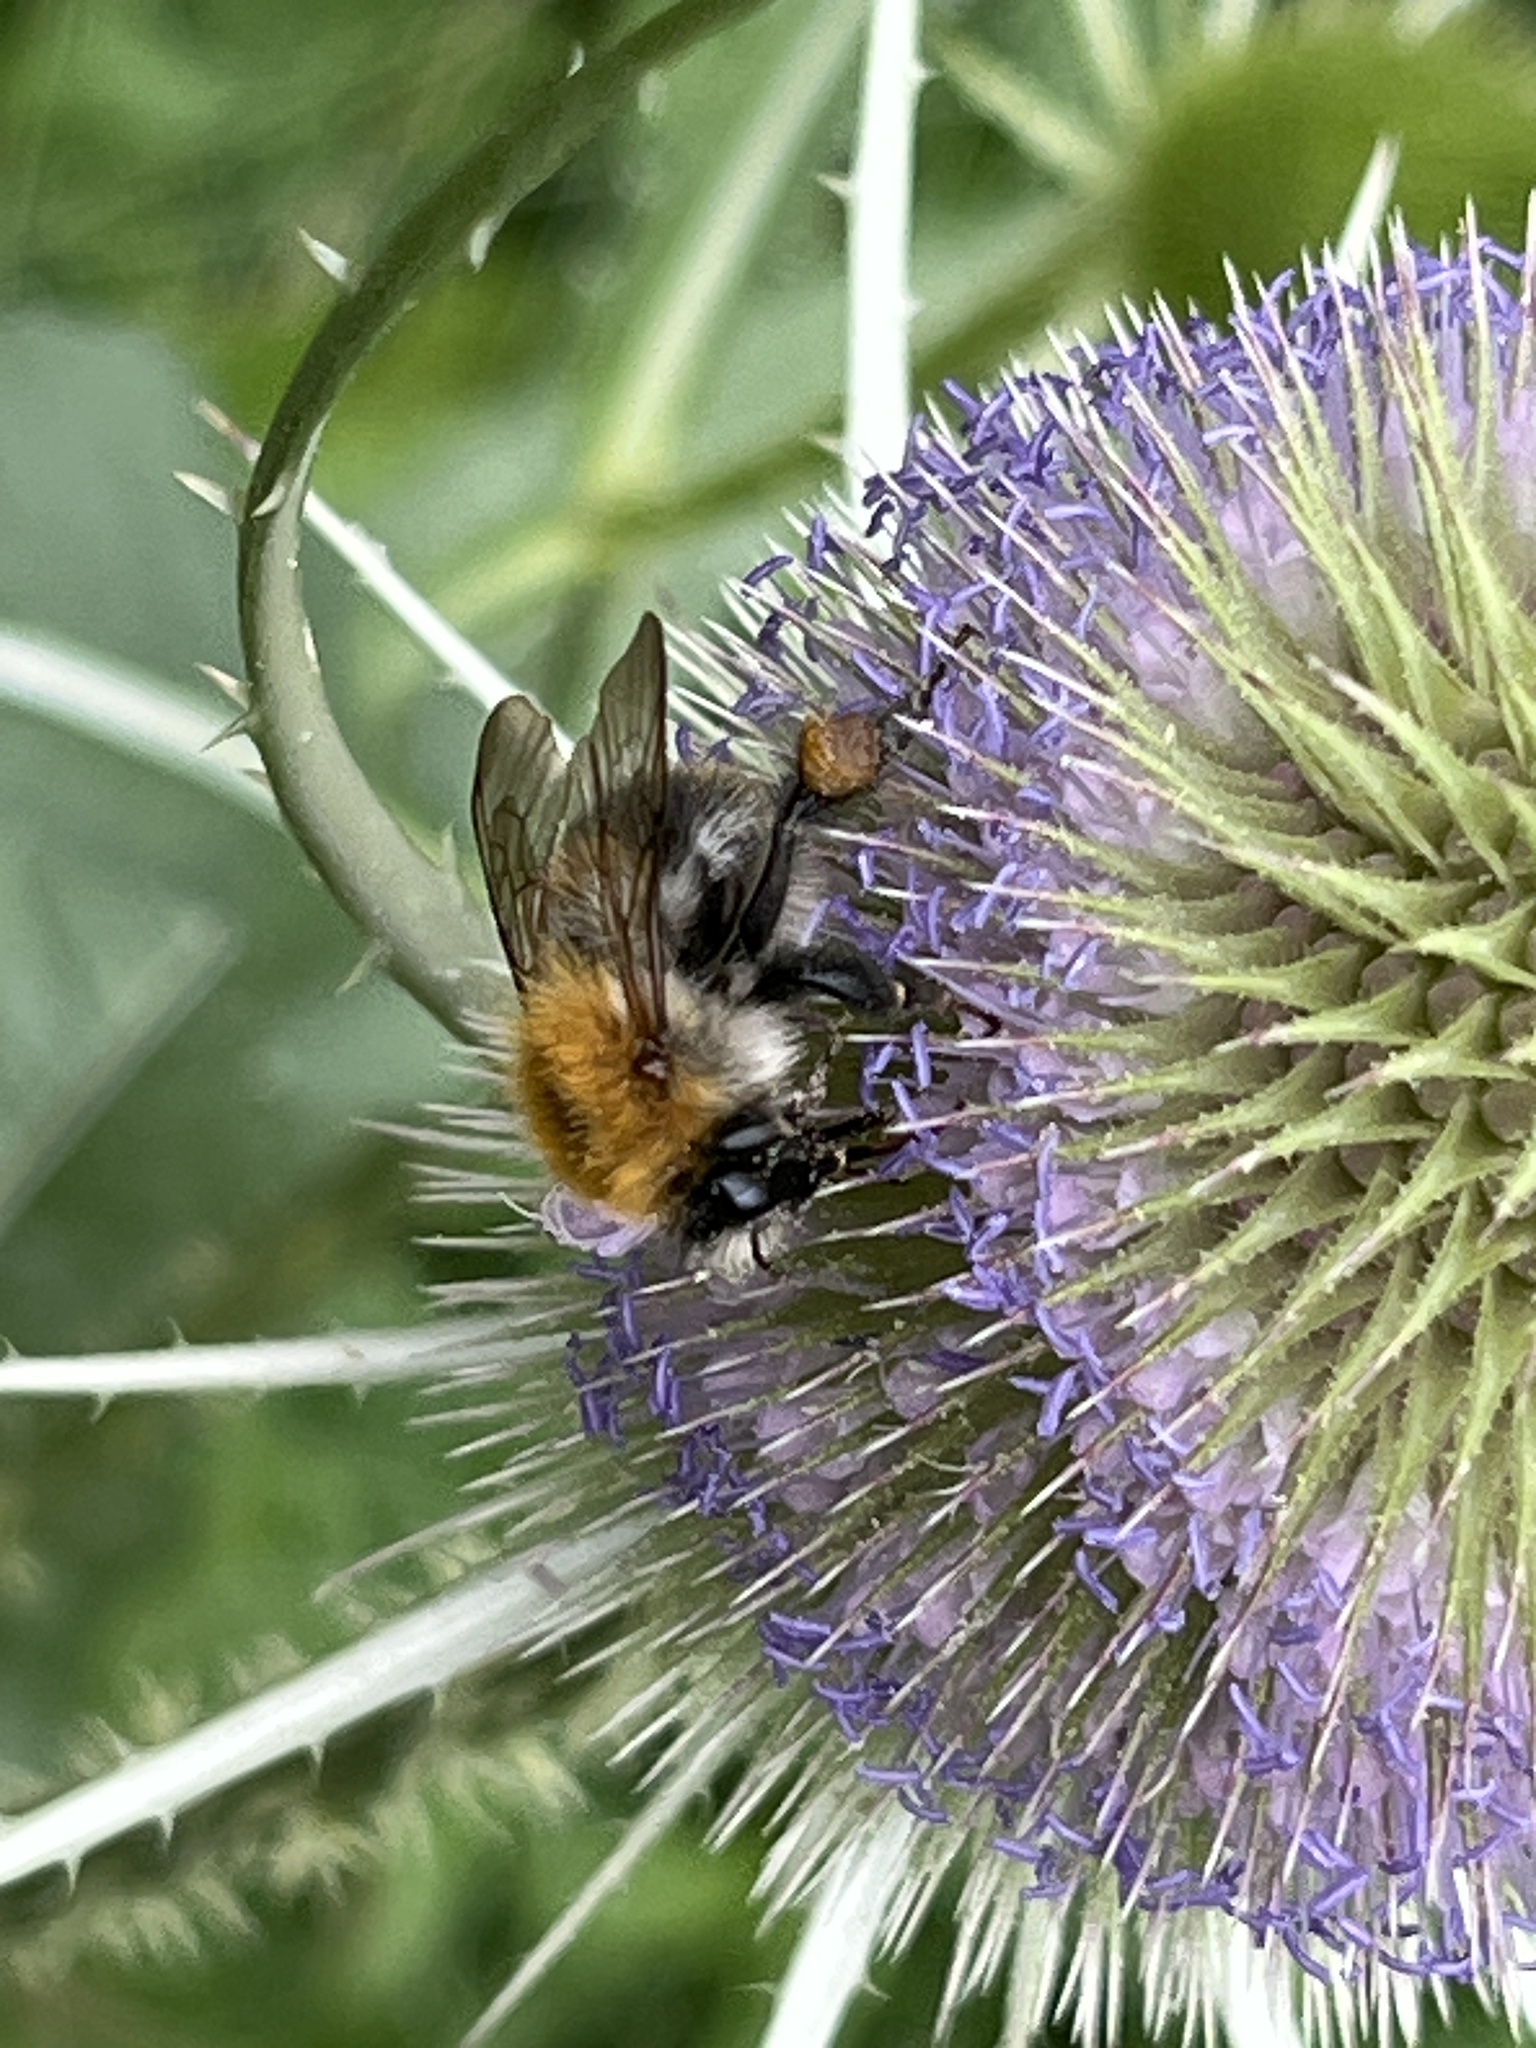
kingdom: Animalia
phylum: Arthropoda
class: Insecta
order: Hymenoptera
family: Apidae
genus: Bombus
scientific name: Bombus pascuorum
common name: Common carder bee
